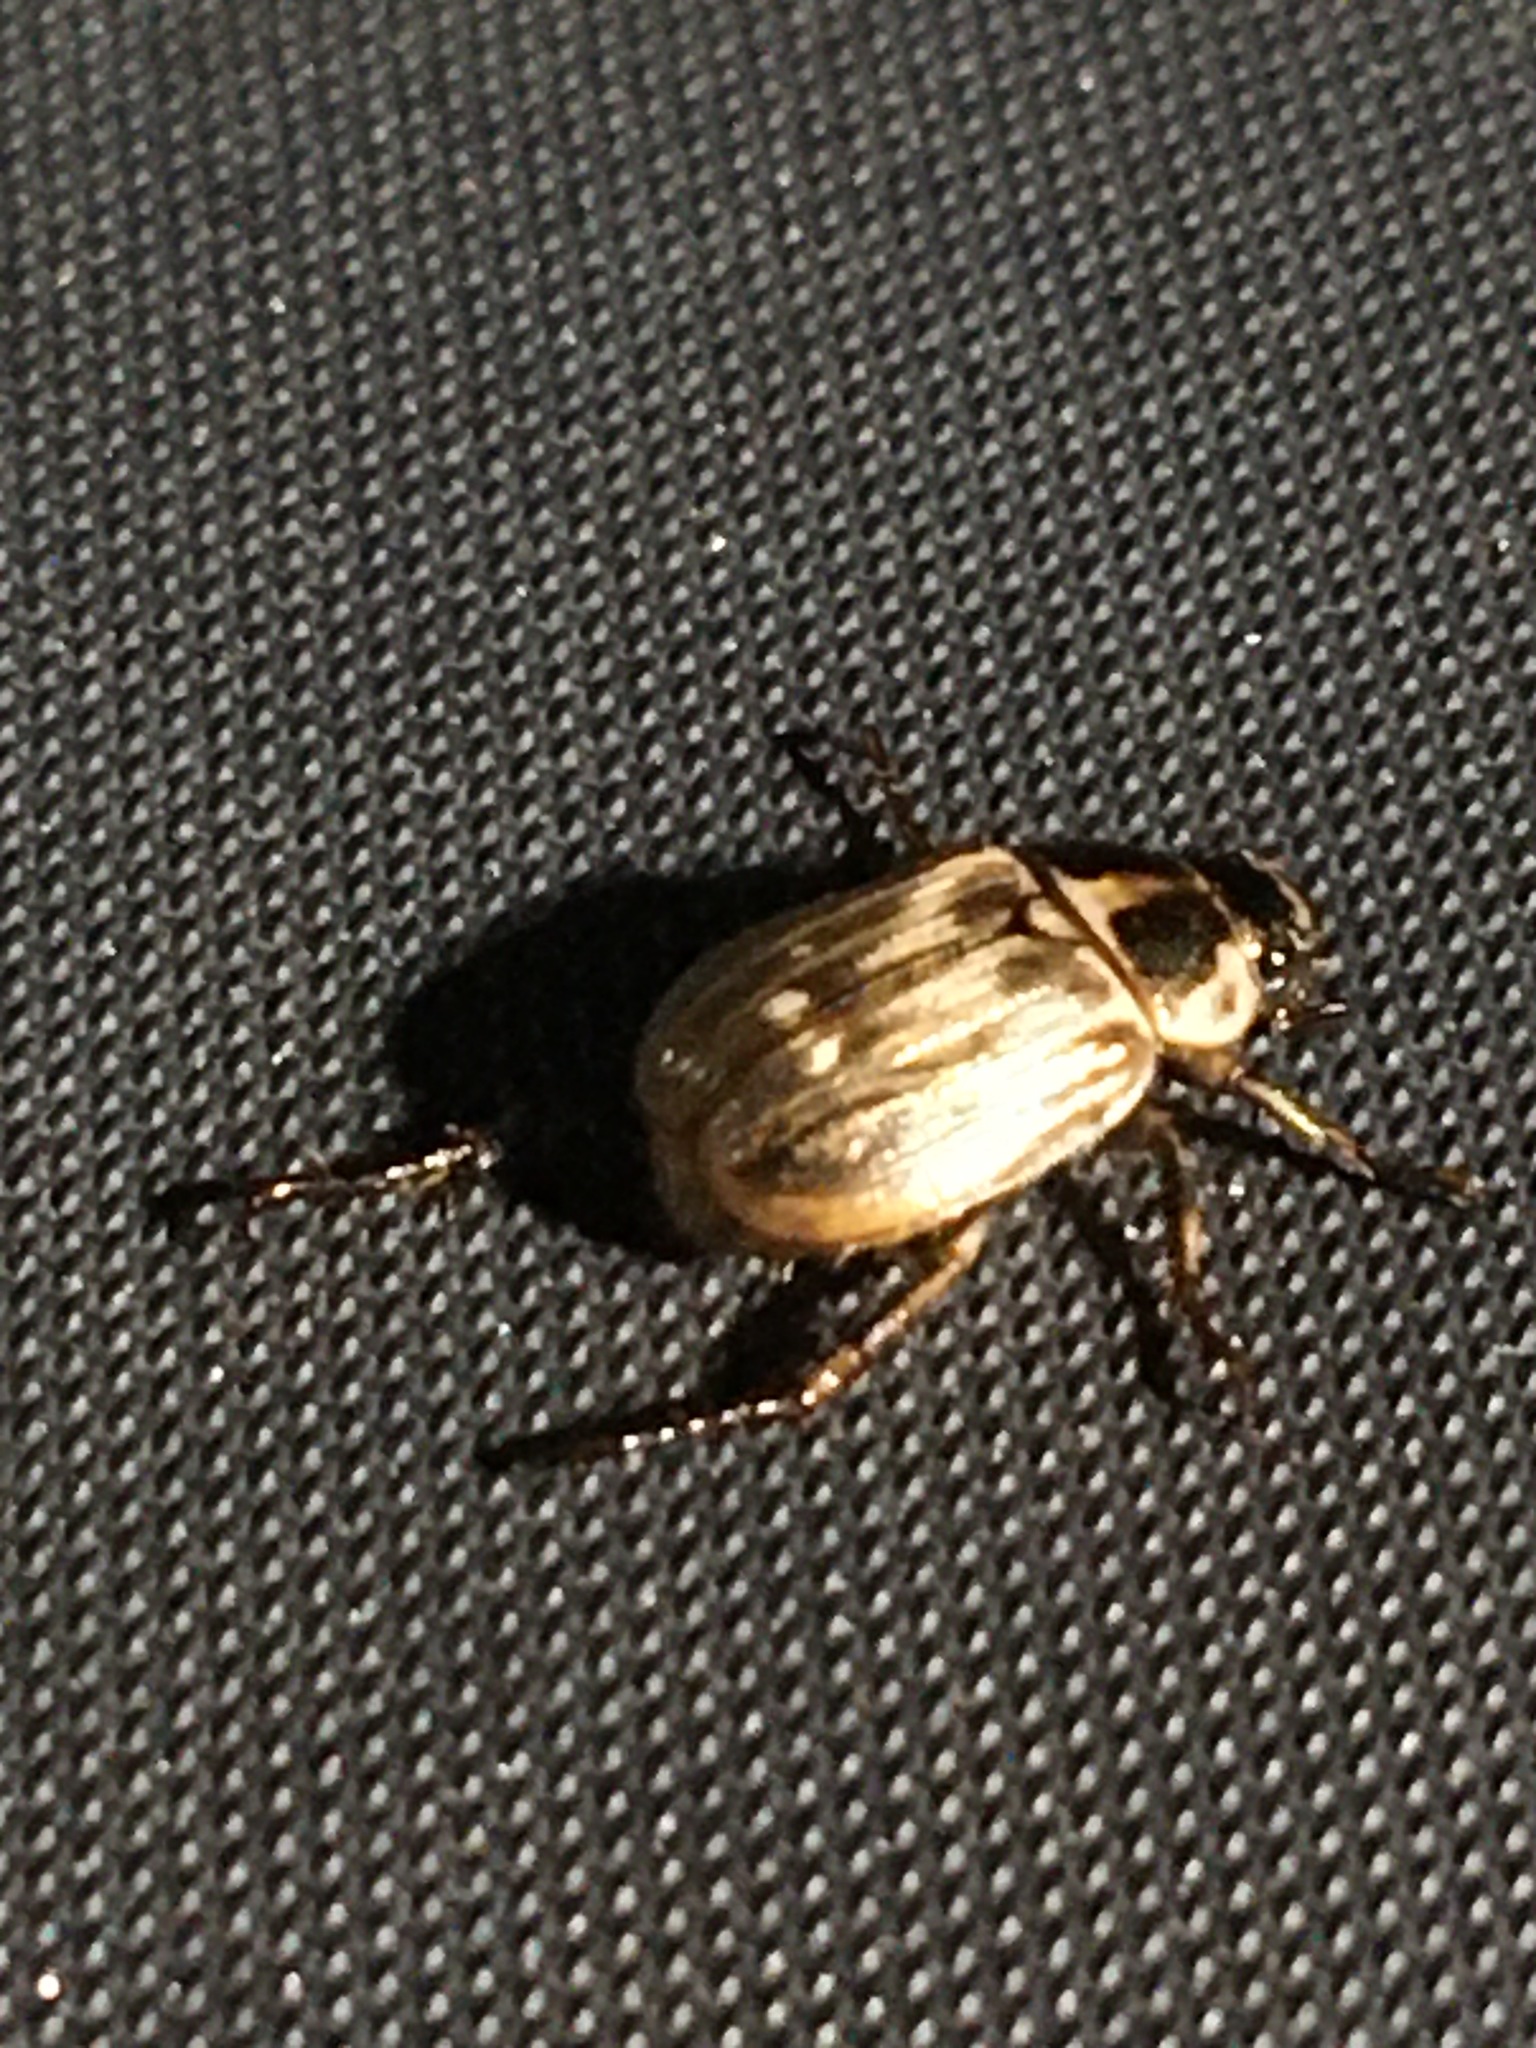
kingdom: Animalia
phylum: Arthropoda
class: Insecta
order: Coleoptera
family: Scarabaeidae
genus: Exomala
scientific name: Exomala orientalis
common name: Oriental beetle
